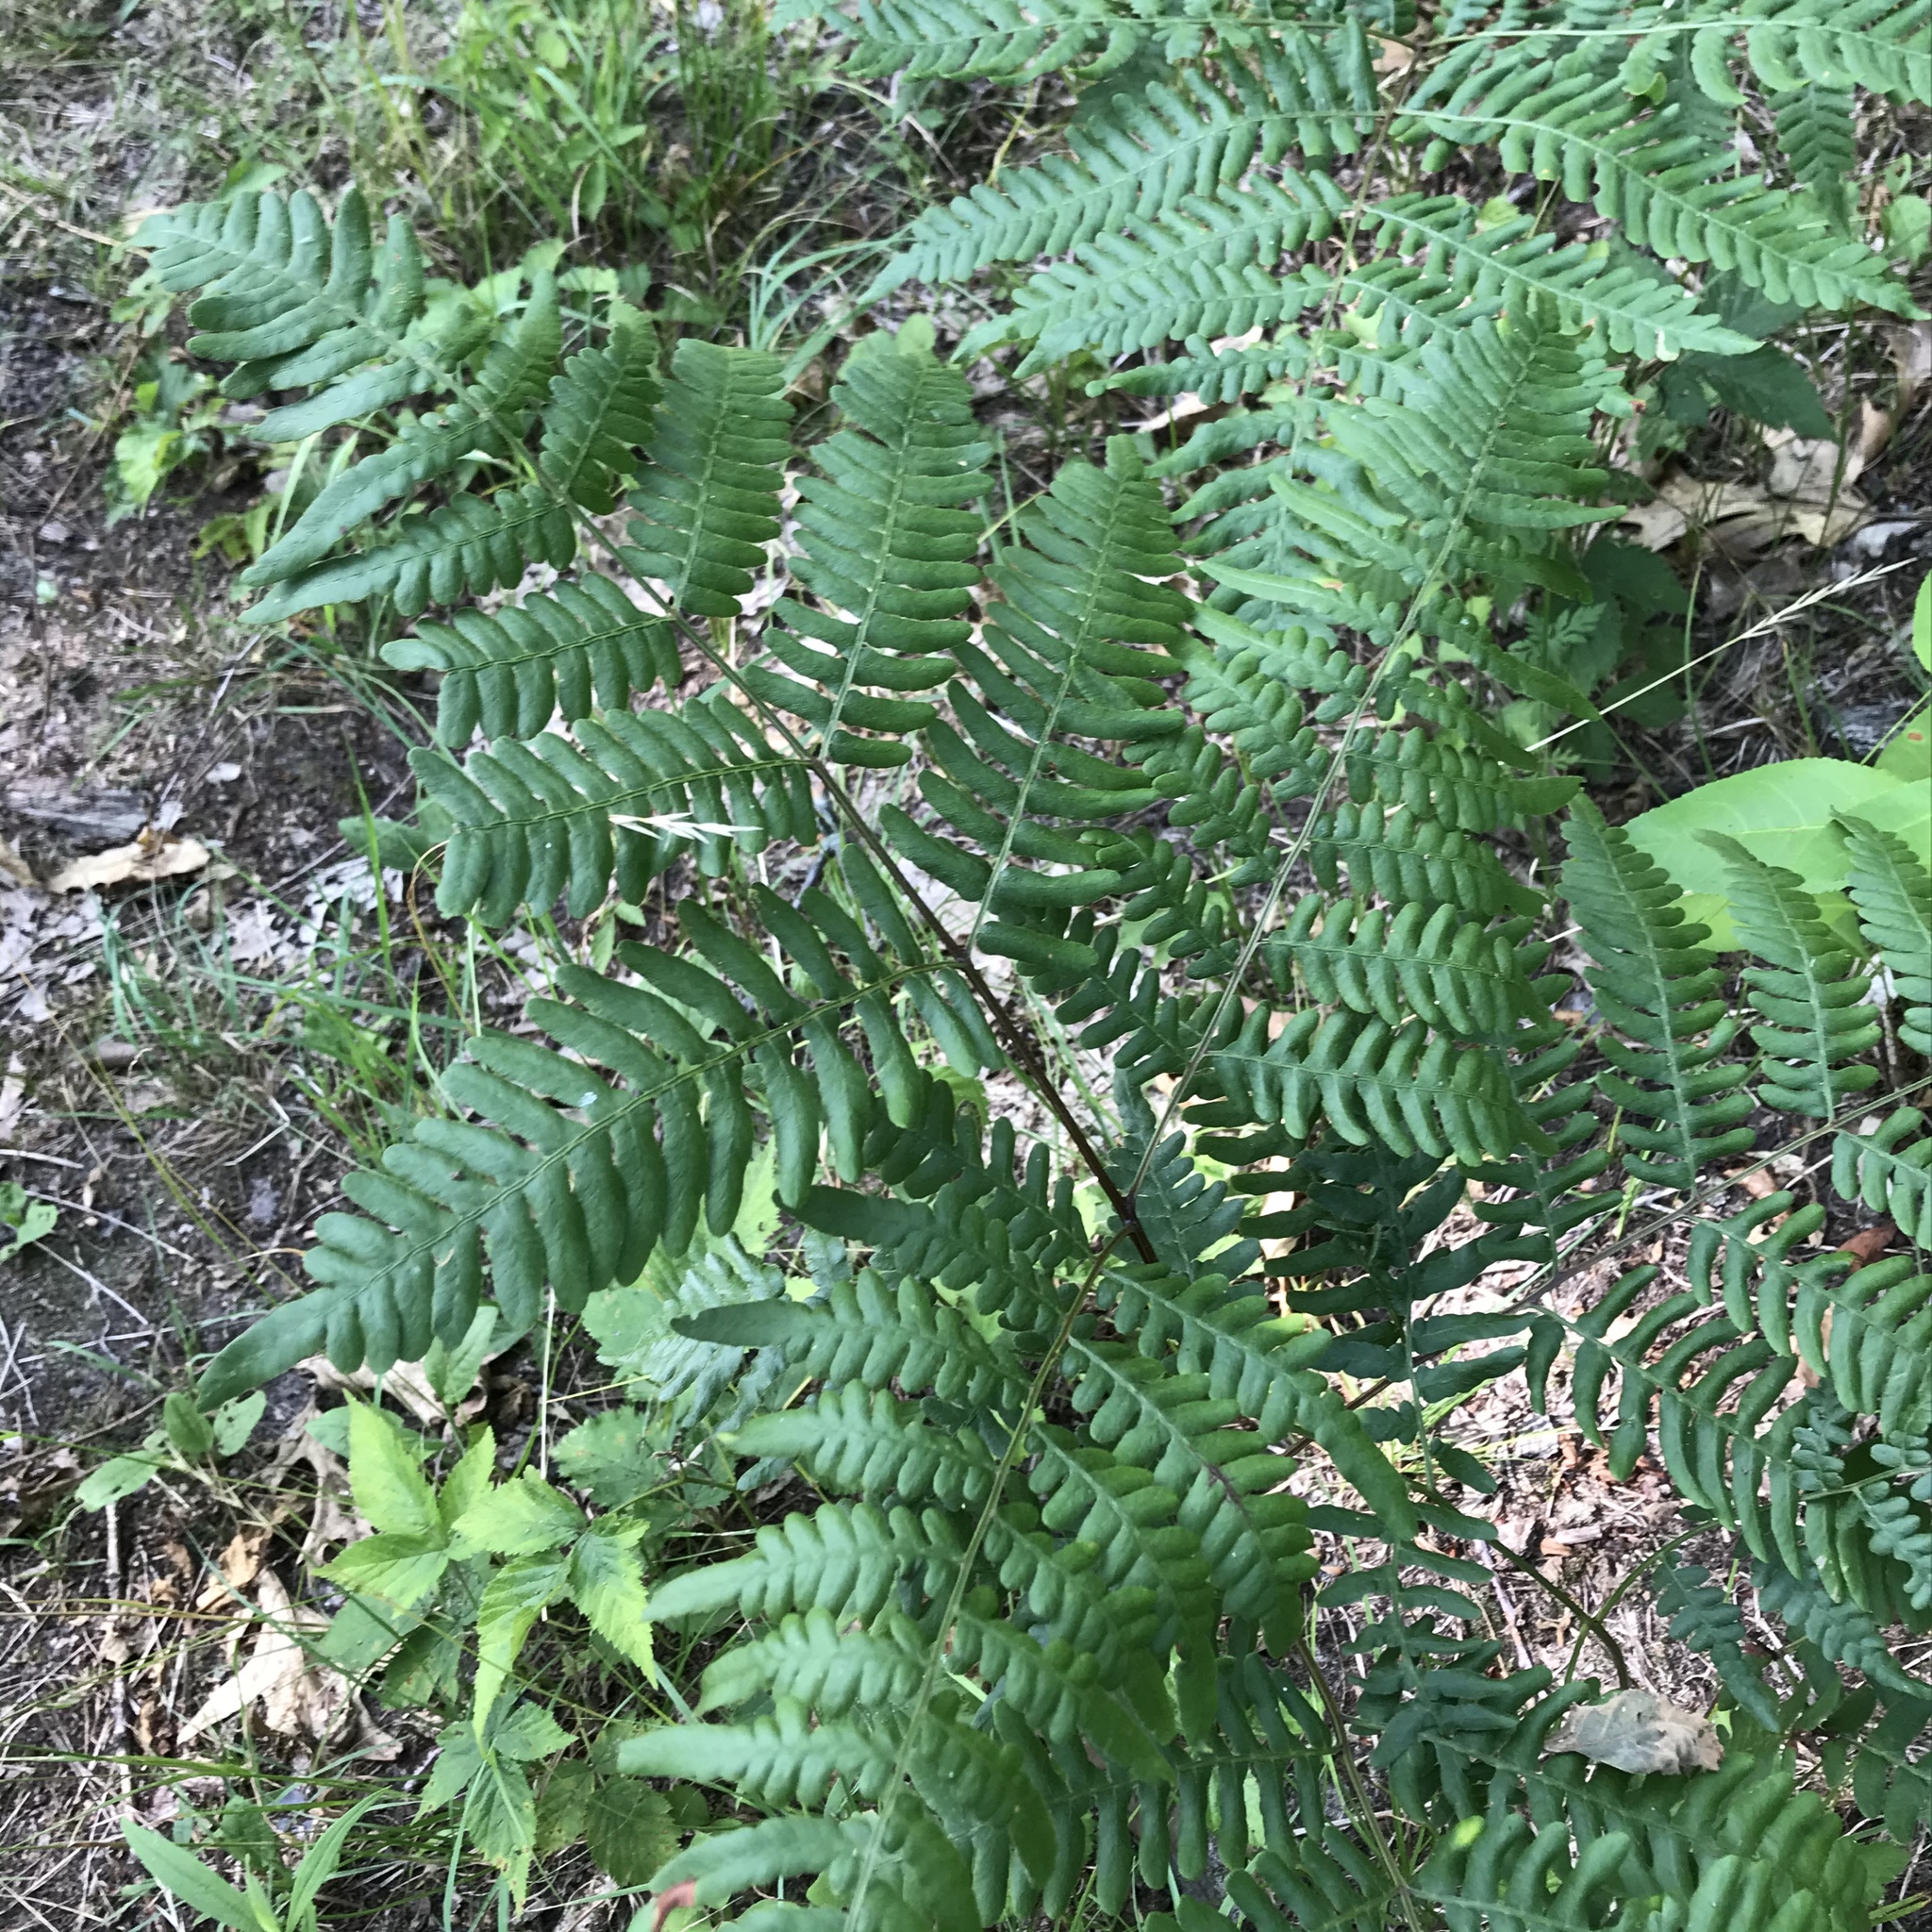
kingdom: Plantae
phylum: Tracheophyta
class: Polypodiopsida
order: Polypodiales
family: Dennstaedtiaceae
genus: Pteridium
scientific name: Pteridium aquilinum
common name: Bracken
